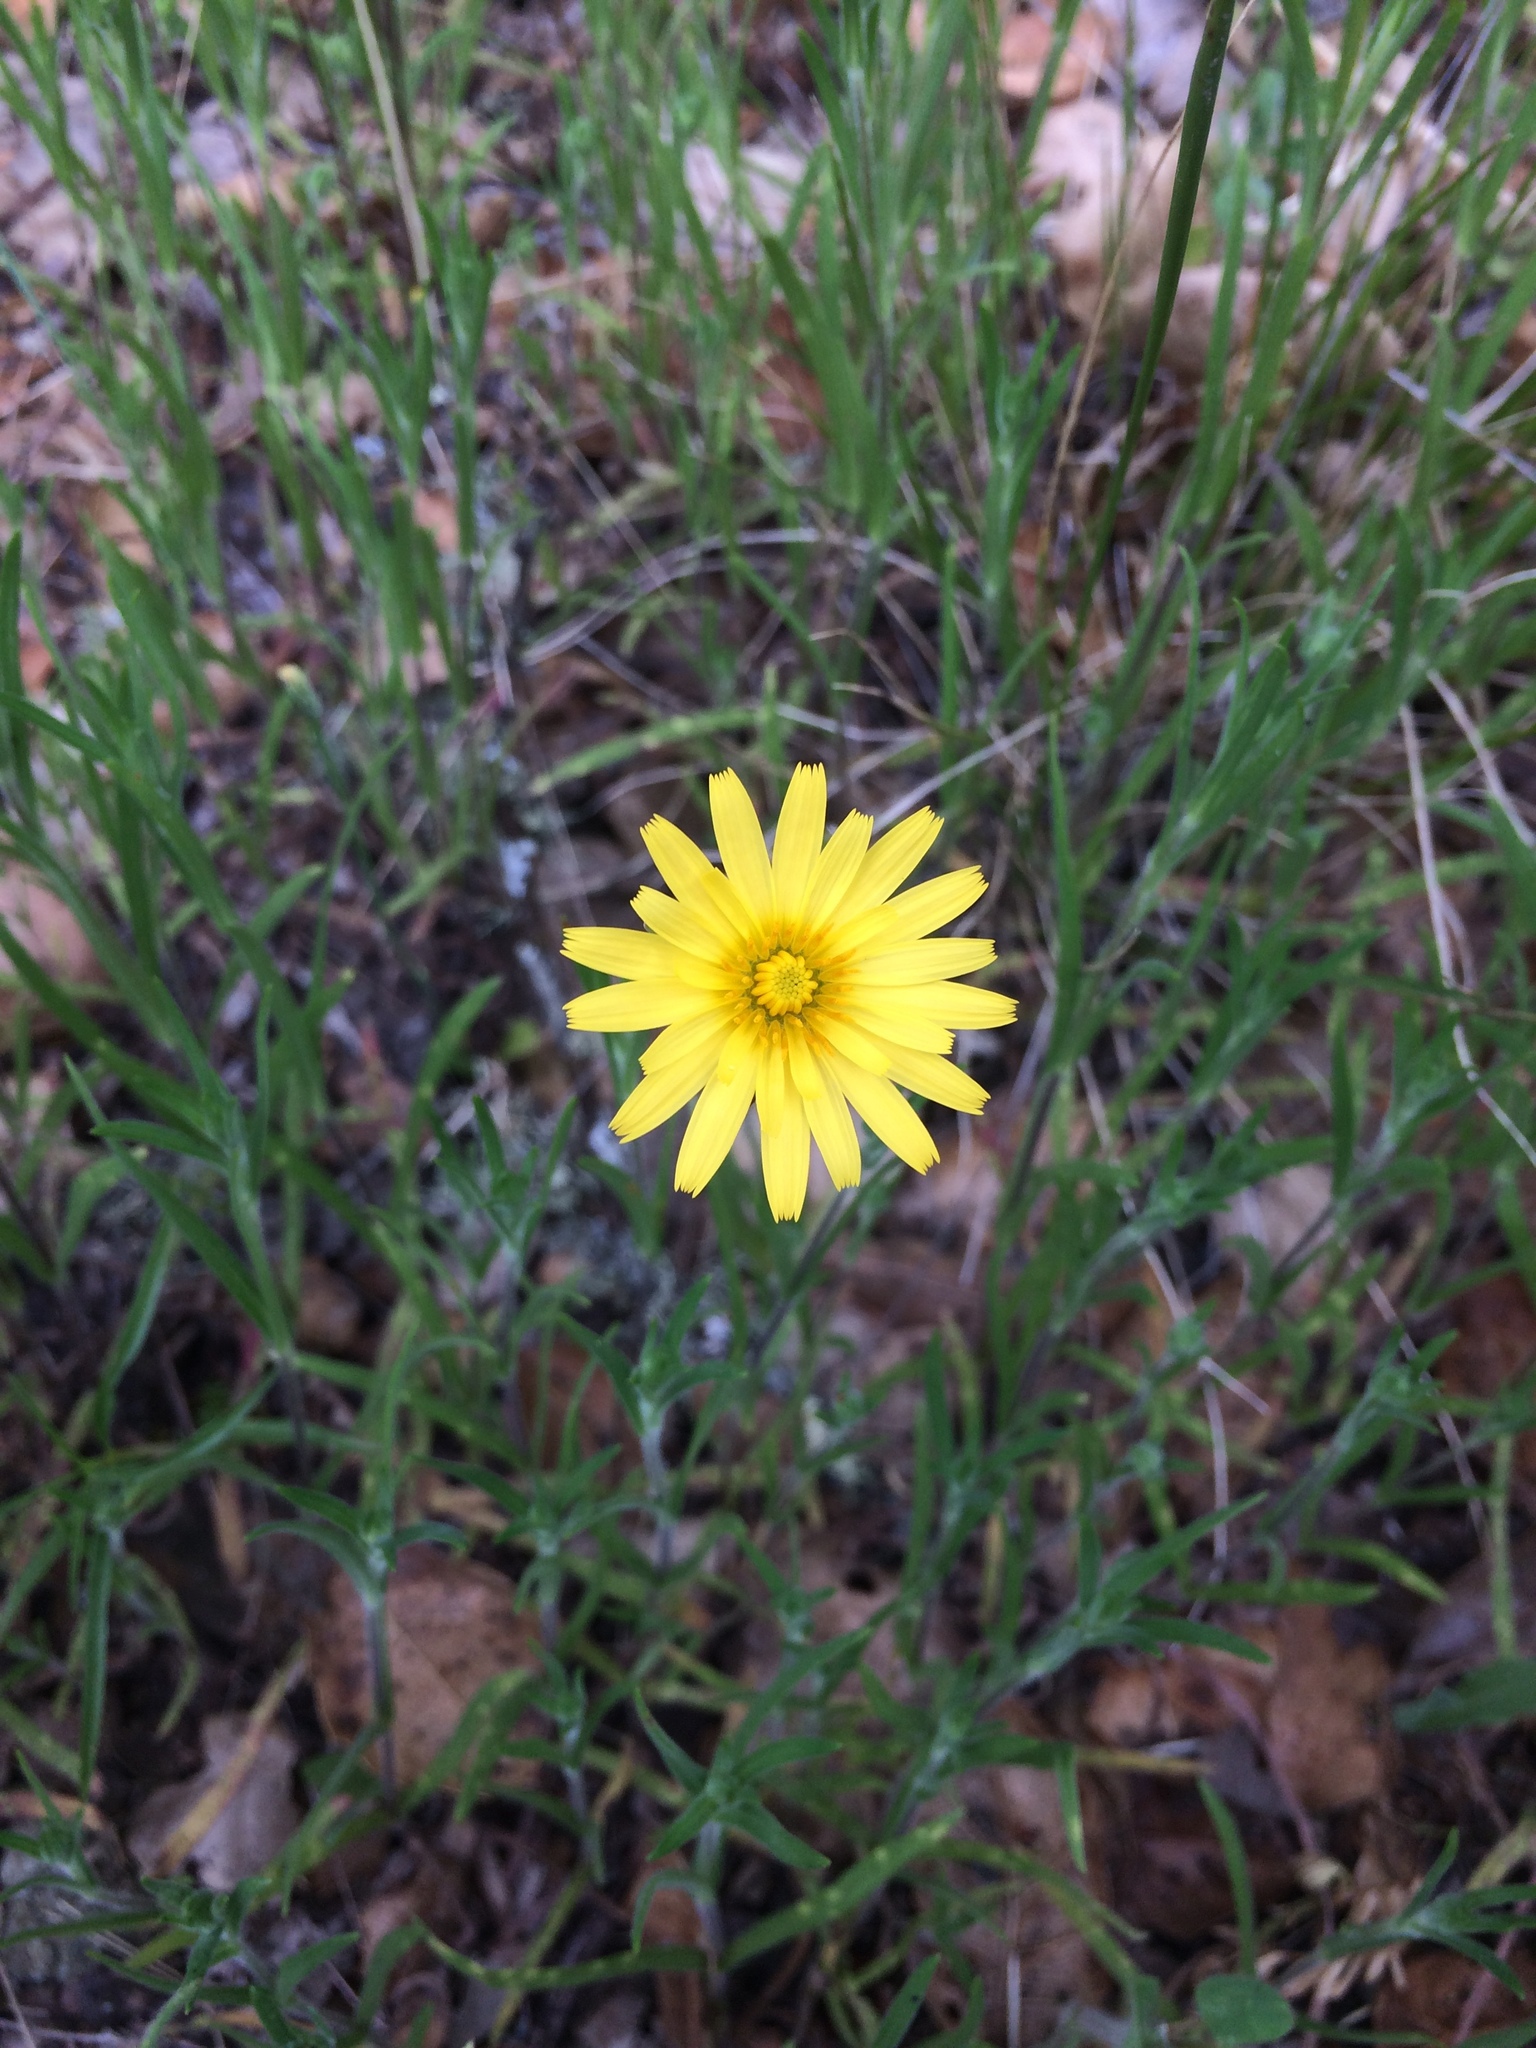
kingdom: Plantae
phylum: Tracheophyta
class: Magnoliopsida
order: Asterales
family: Asteraceae
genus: Agoseris
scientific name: Agoseris heterophylla
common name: Annual agoseris
